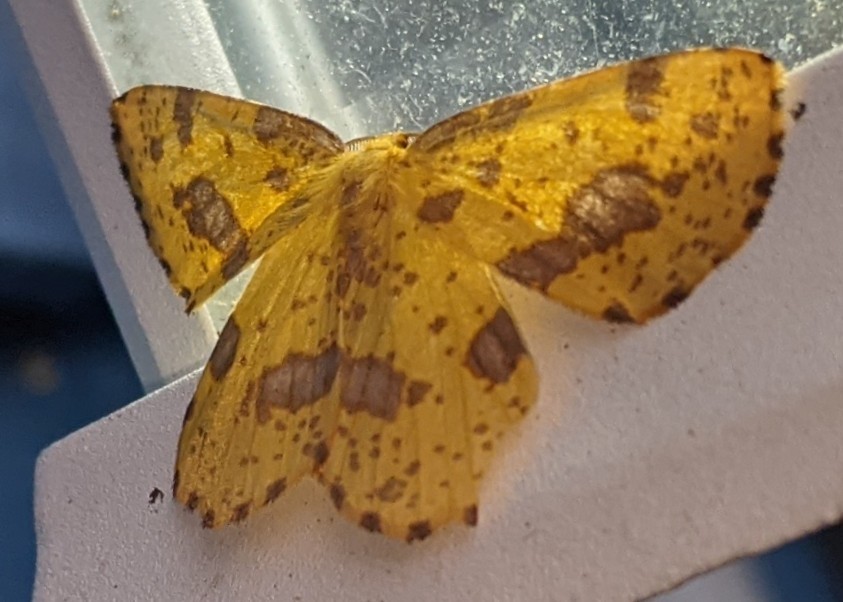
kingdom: Animalia
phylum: Arthropoda
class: Insecta
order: Lepidoptera
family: Geometridae
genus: Xanthotype
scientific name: Xanthotype
